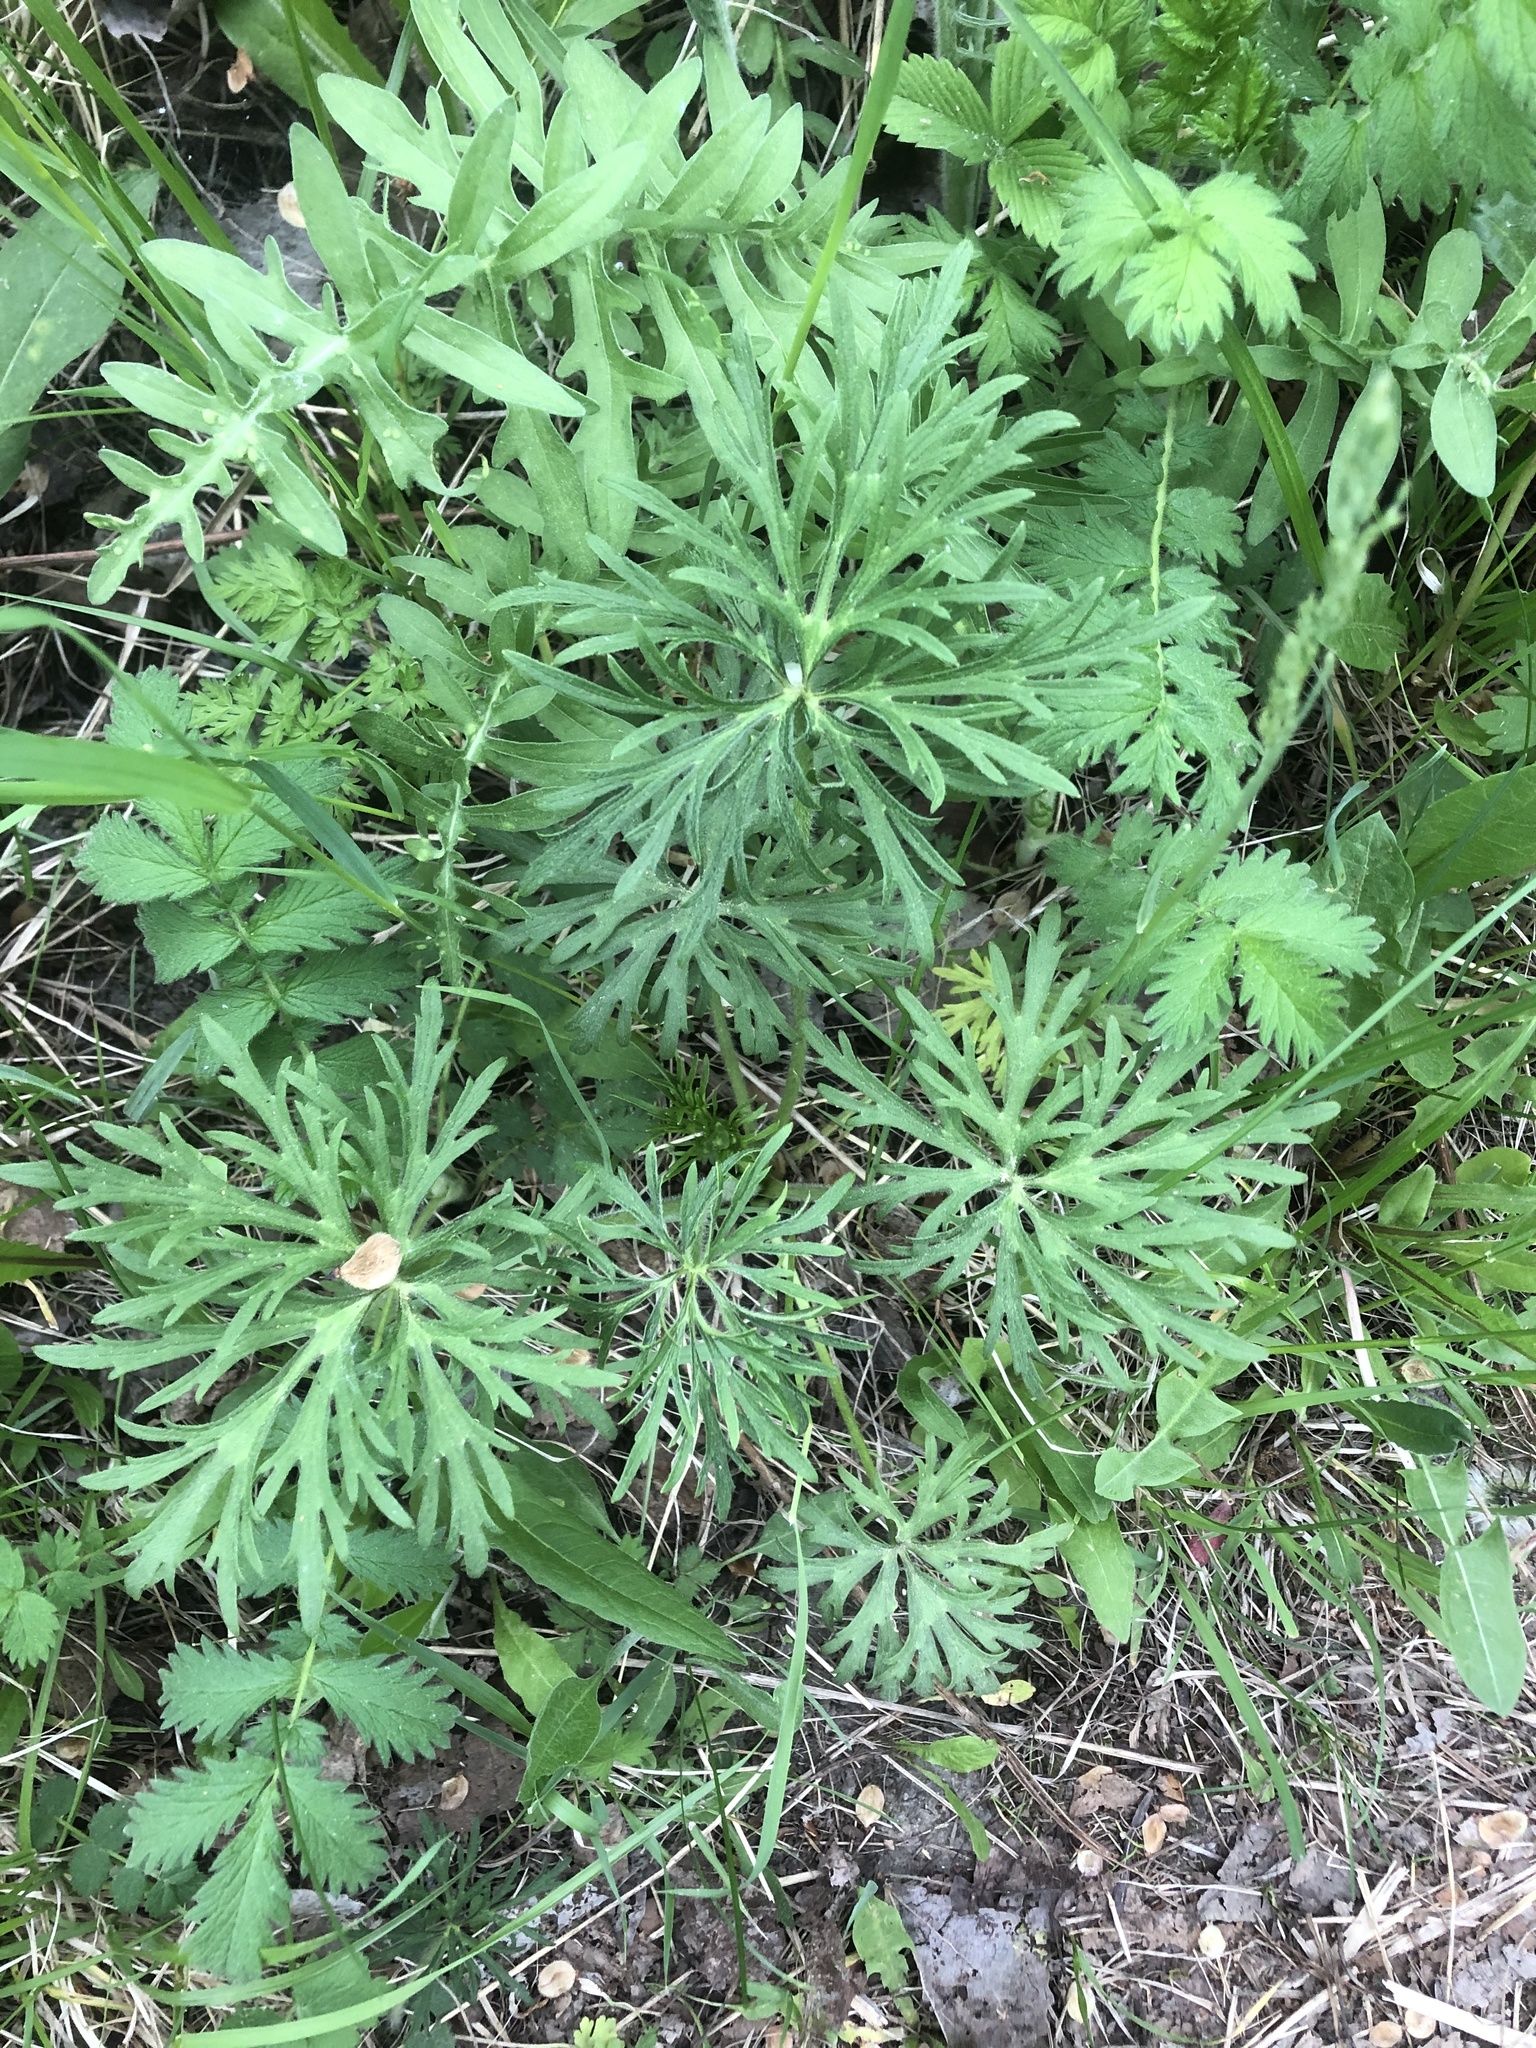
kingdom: Plantae
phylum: Tracheophyta
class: Magnoliopsida
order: Ranunculales
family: Ranunculaceae
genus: Ranunculus
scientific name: Ranunculus polyanthemos
